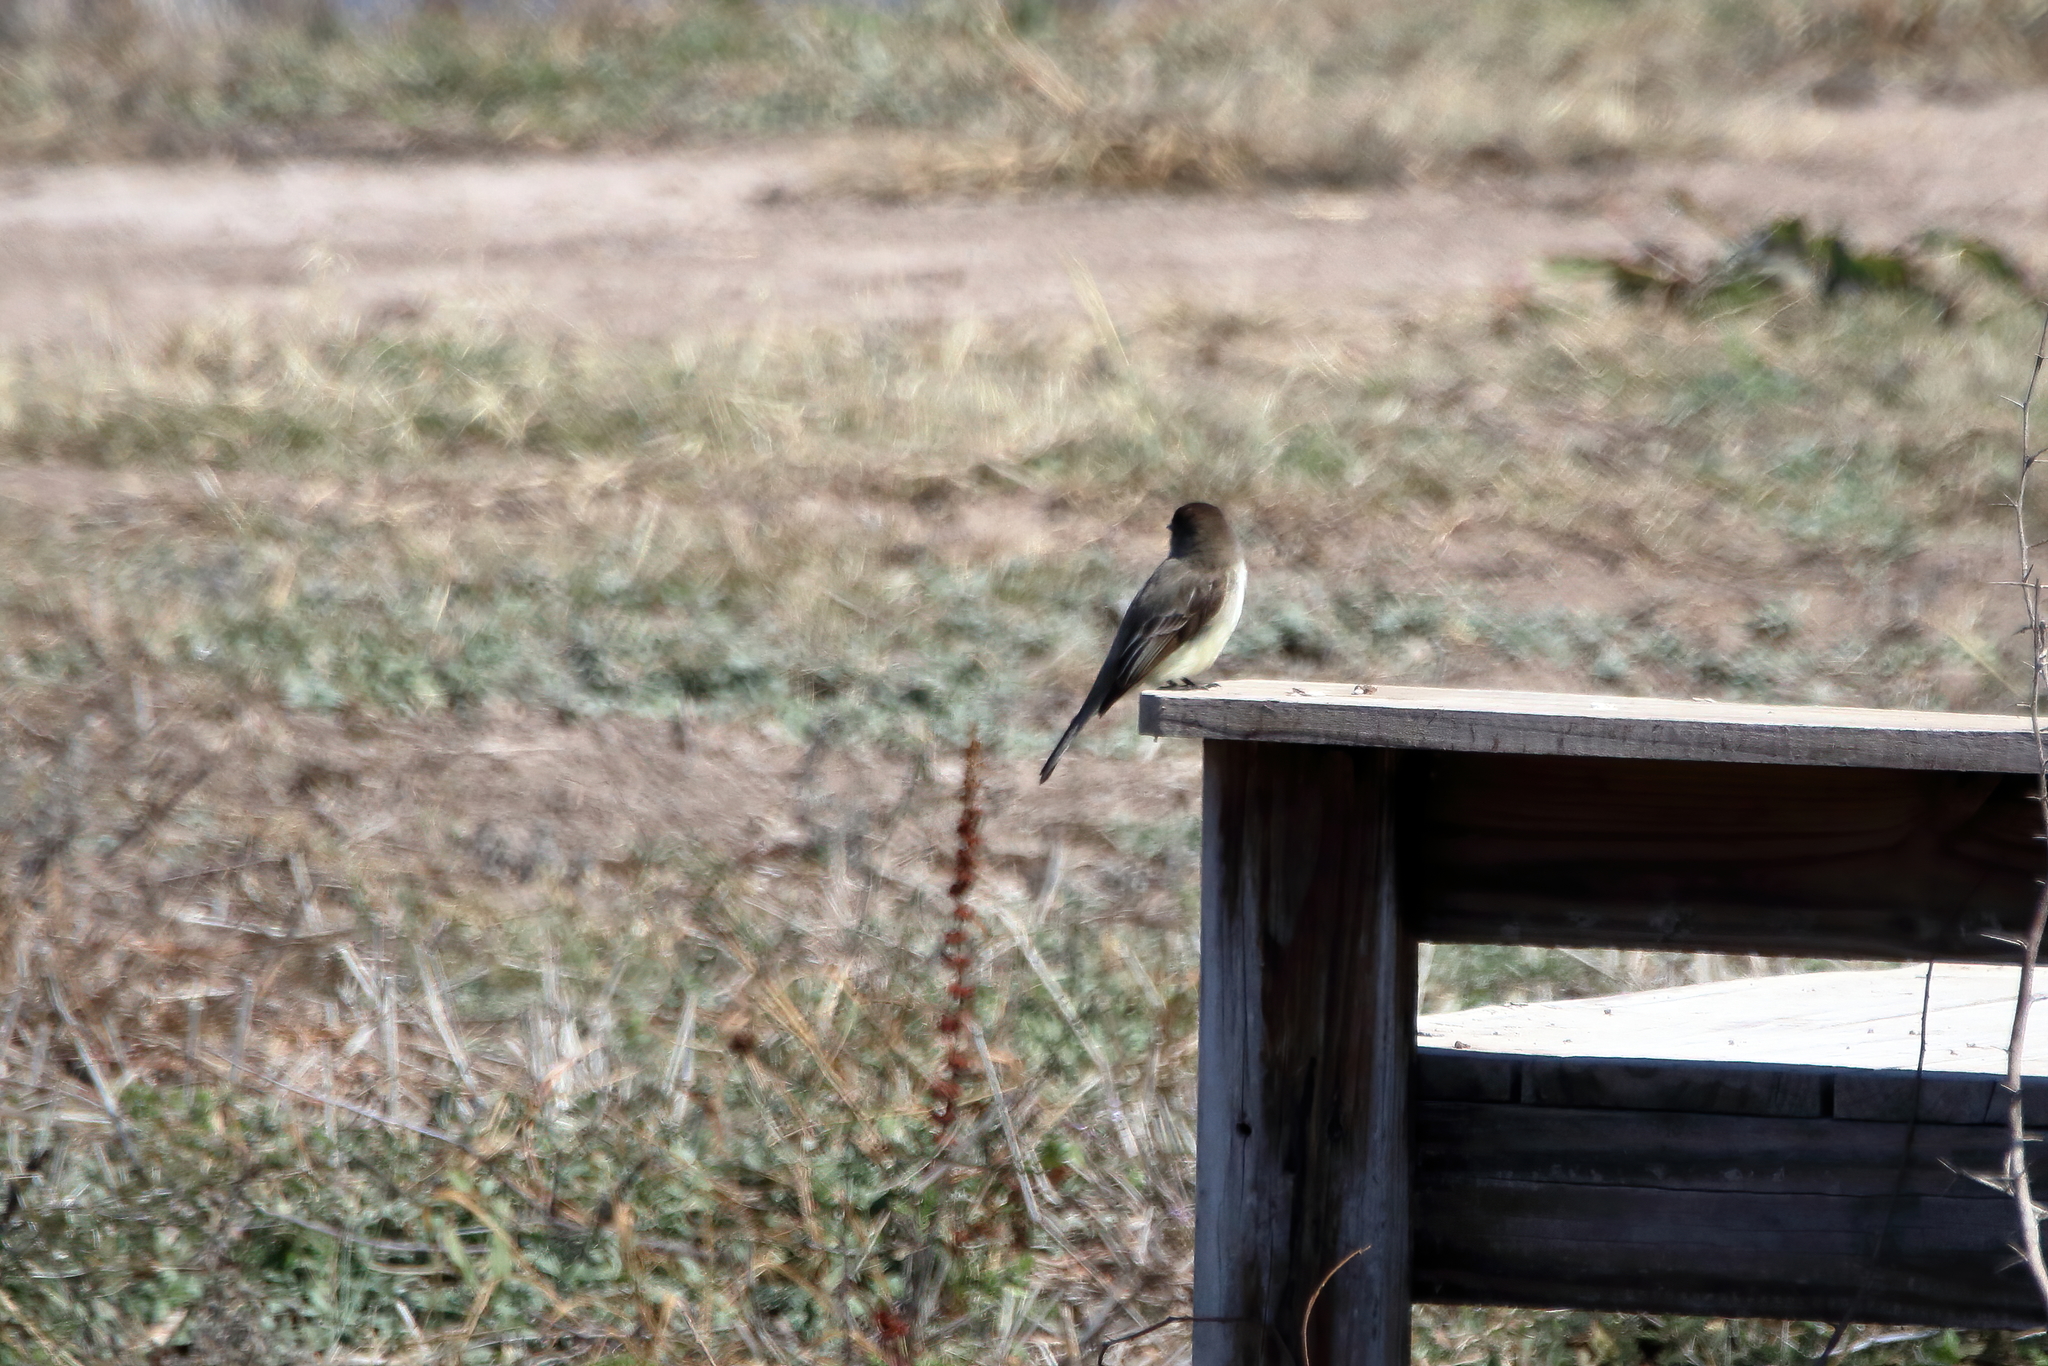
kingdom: Animalia
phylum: Chordata
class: Aves
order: Passeriformes
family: Tyrannidae
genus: Sayornis
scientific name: Sayornis phoebe
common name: Eastern phoebe
